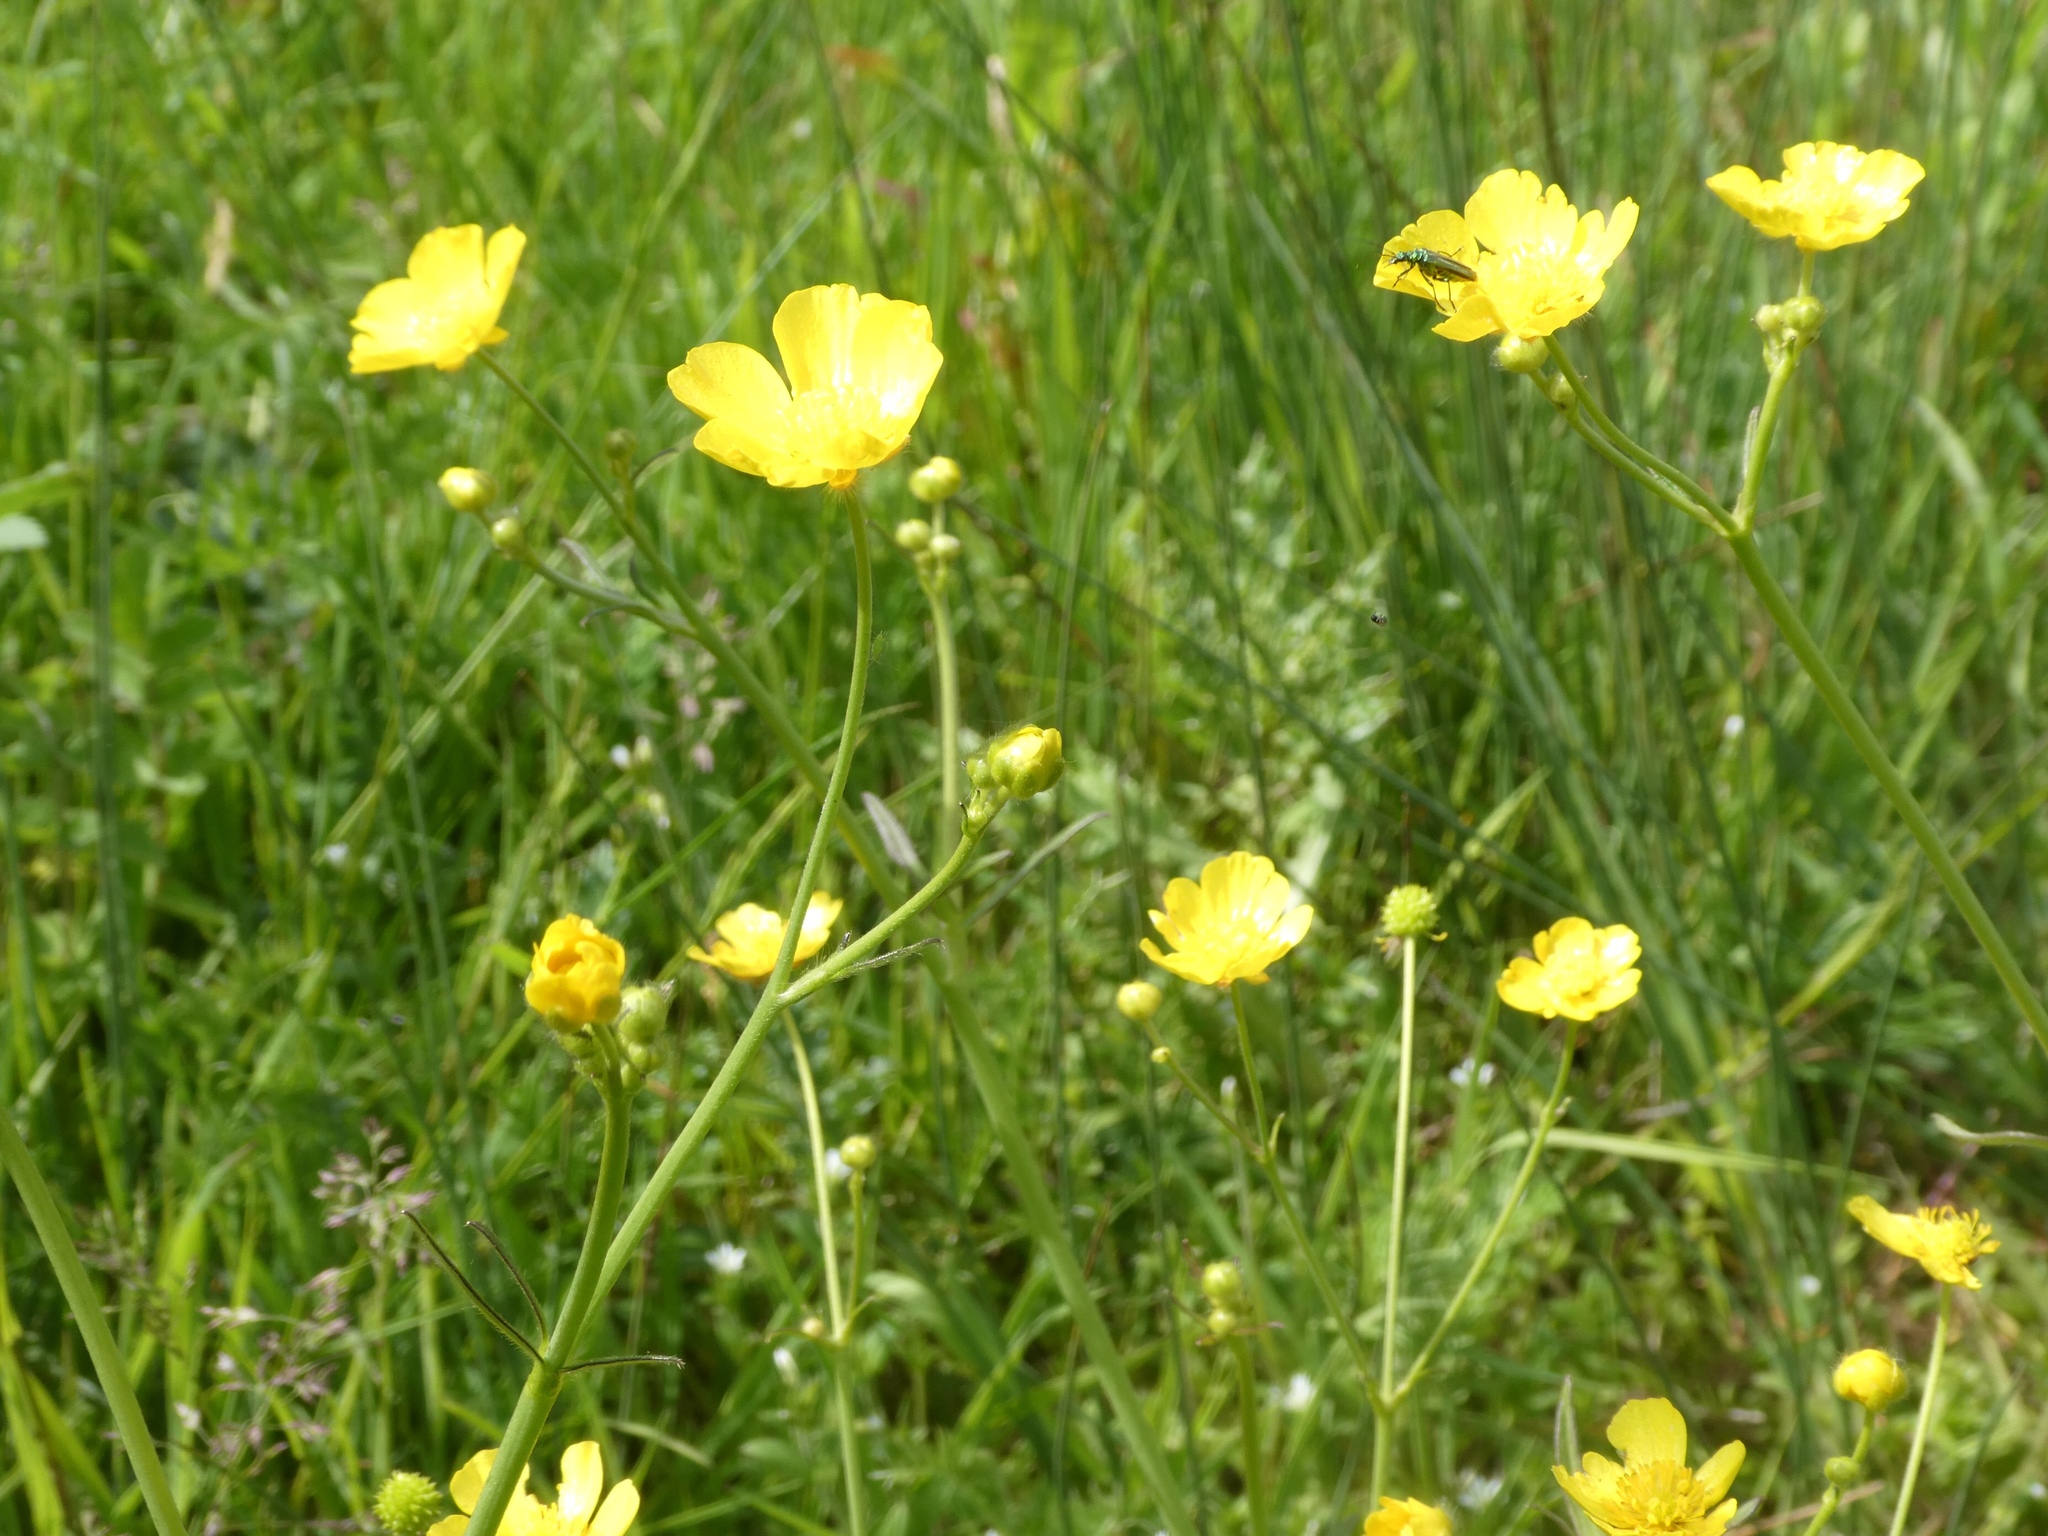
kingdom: Plantae
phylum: Tracheophyta
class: Magnoliopsida
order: Ranunculales
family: Ranunculaceae
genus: Ranunculus
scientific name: Ranunculus acris
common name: Meadow buttercup
